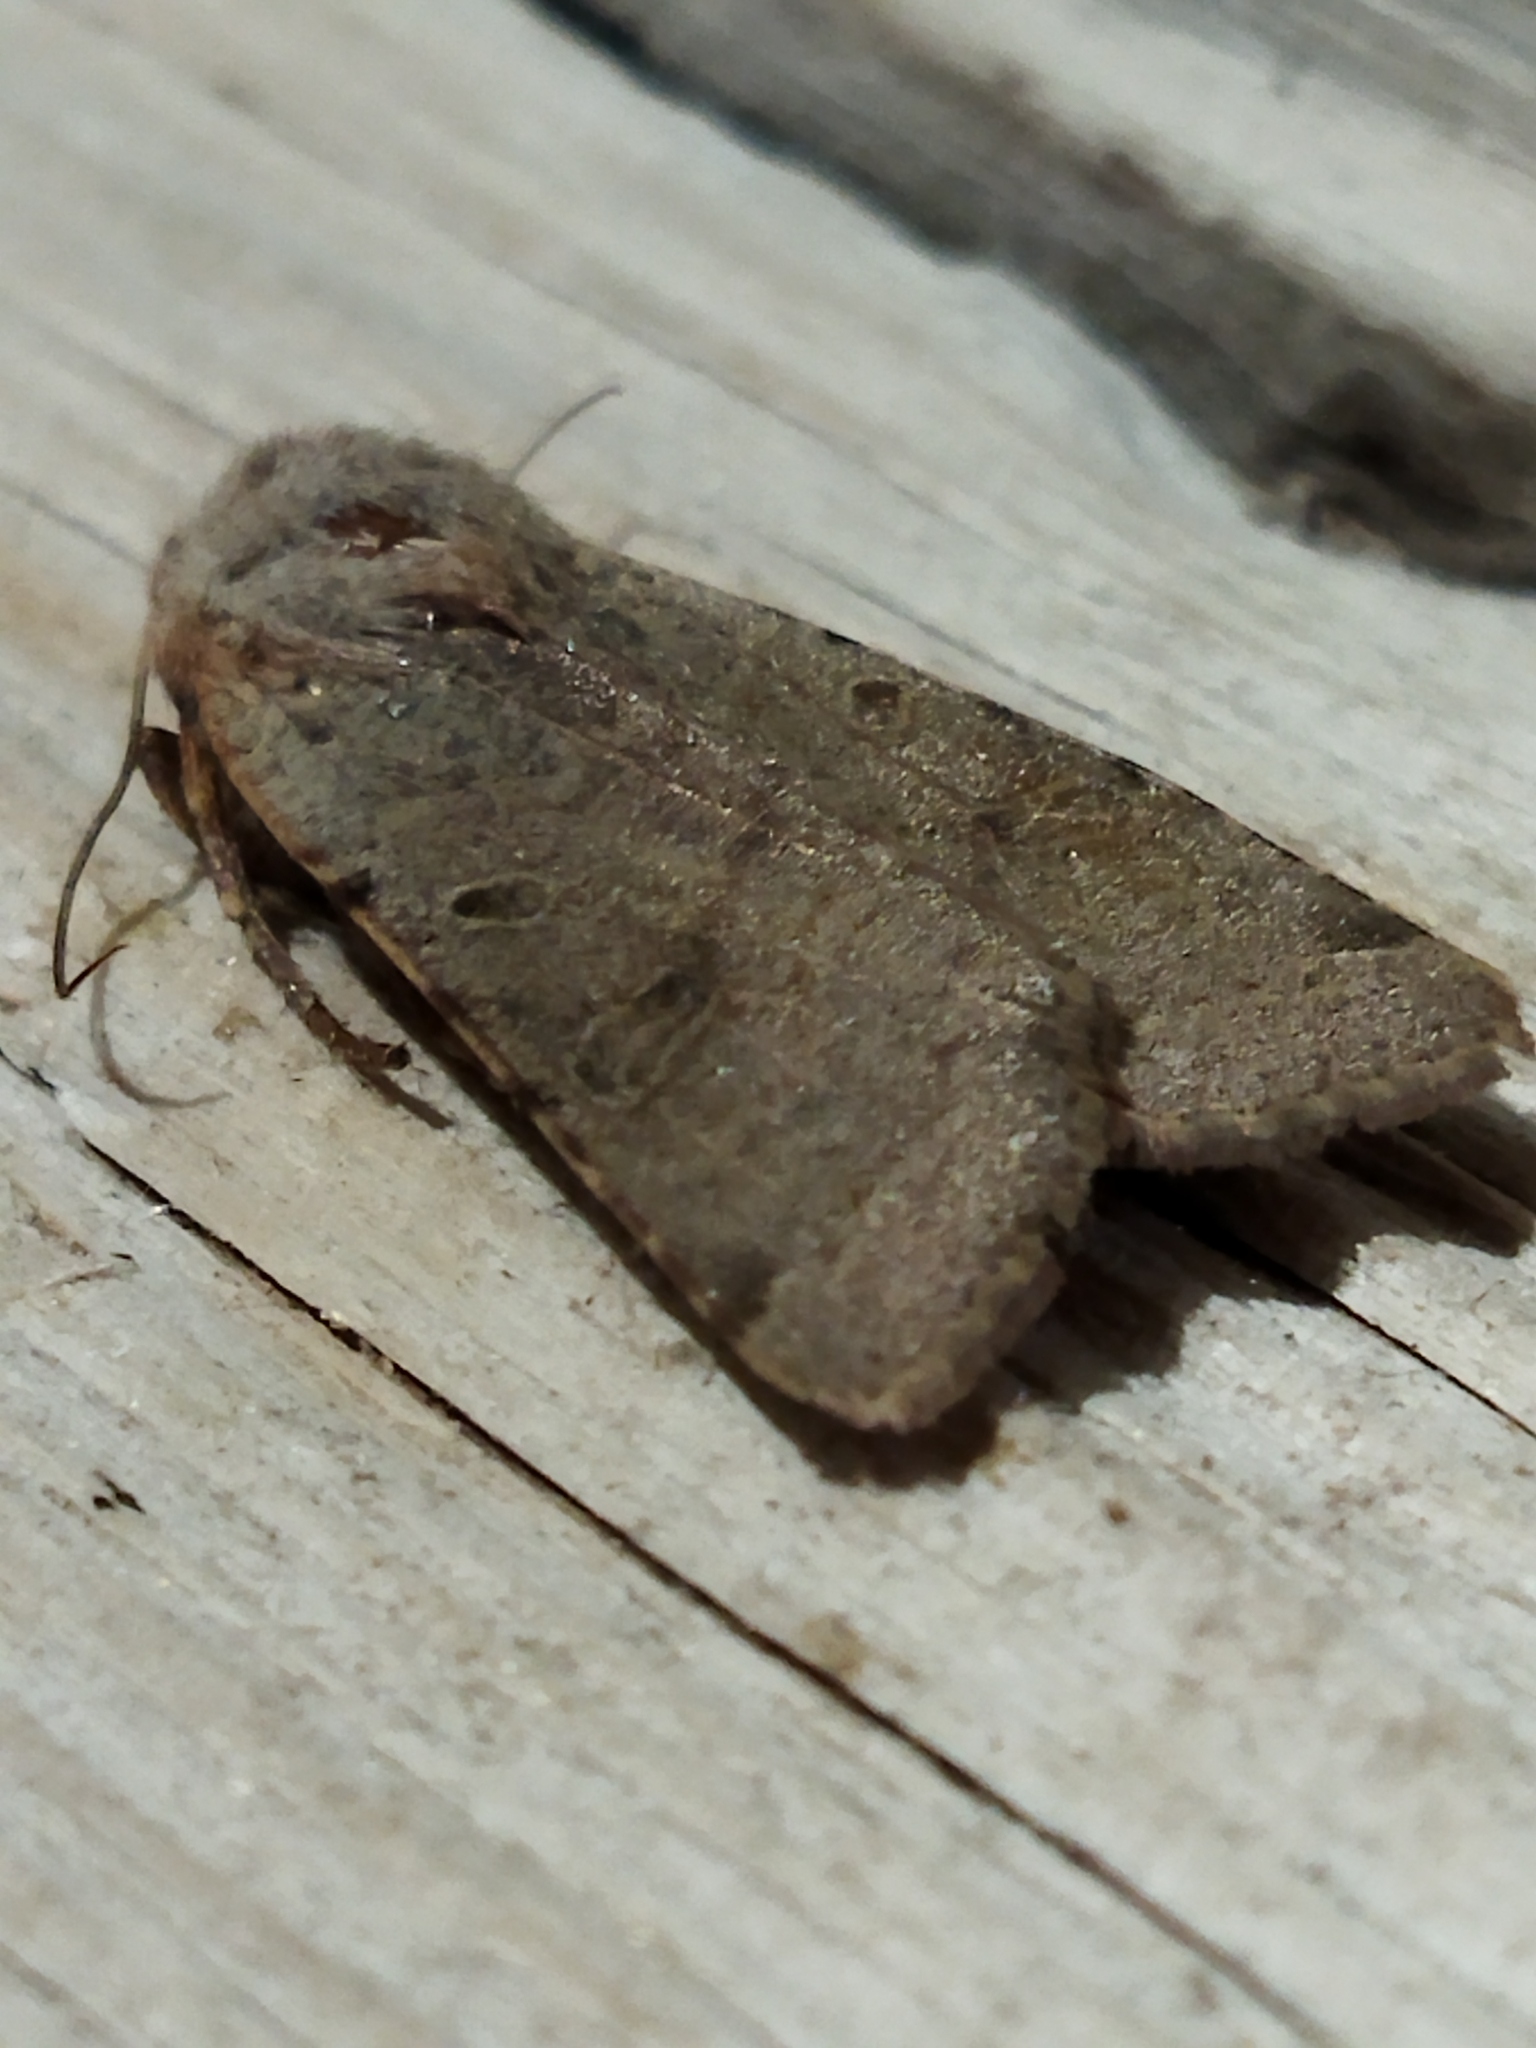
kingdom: Animalia
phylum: Arthropoda
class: Insecta
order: Lepidoptera
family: Noctuidae
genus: Agrochola
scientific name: Agrochola lychnidis
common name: Beaded chestnut
